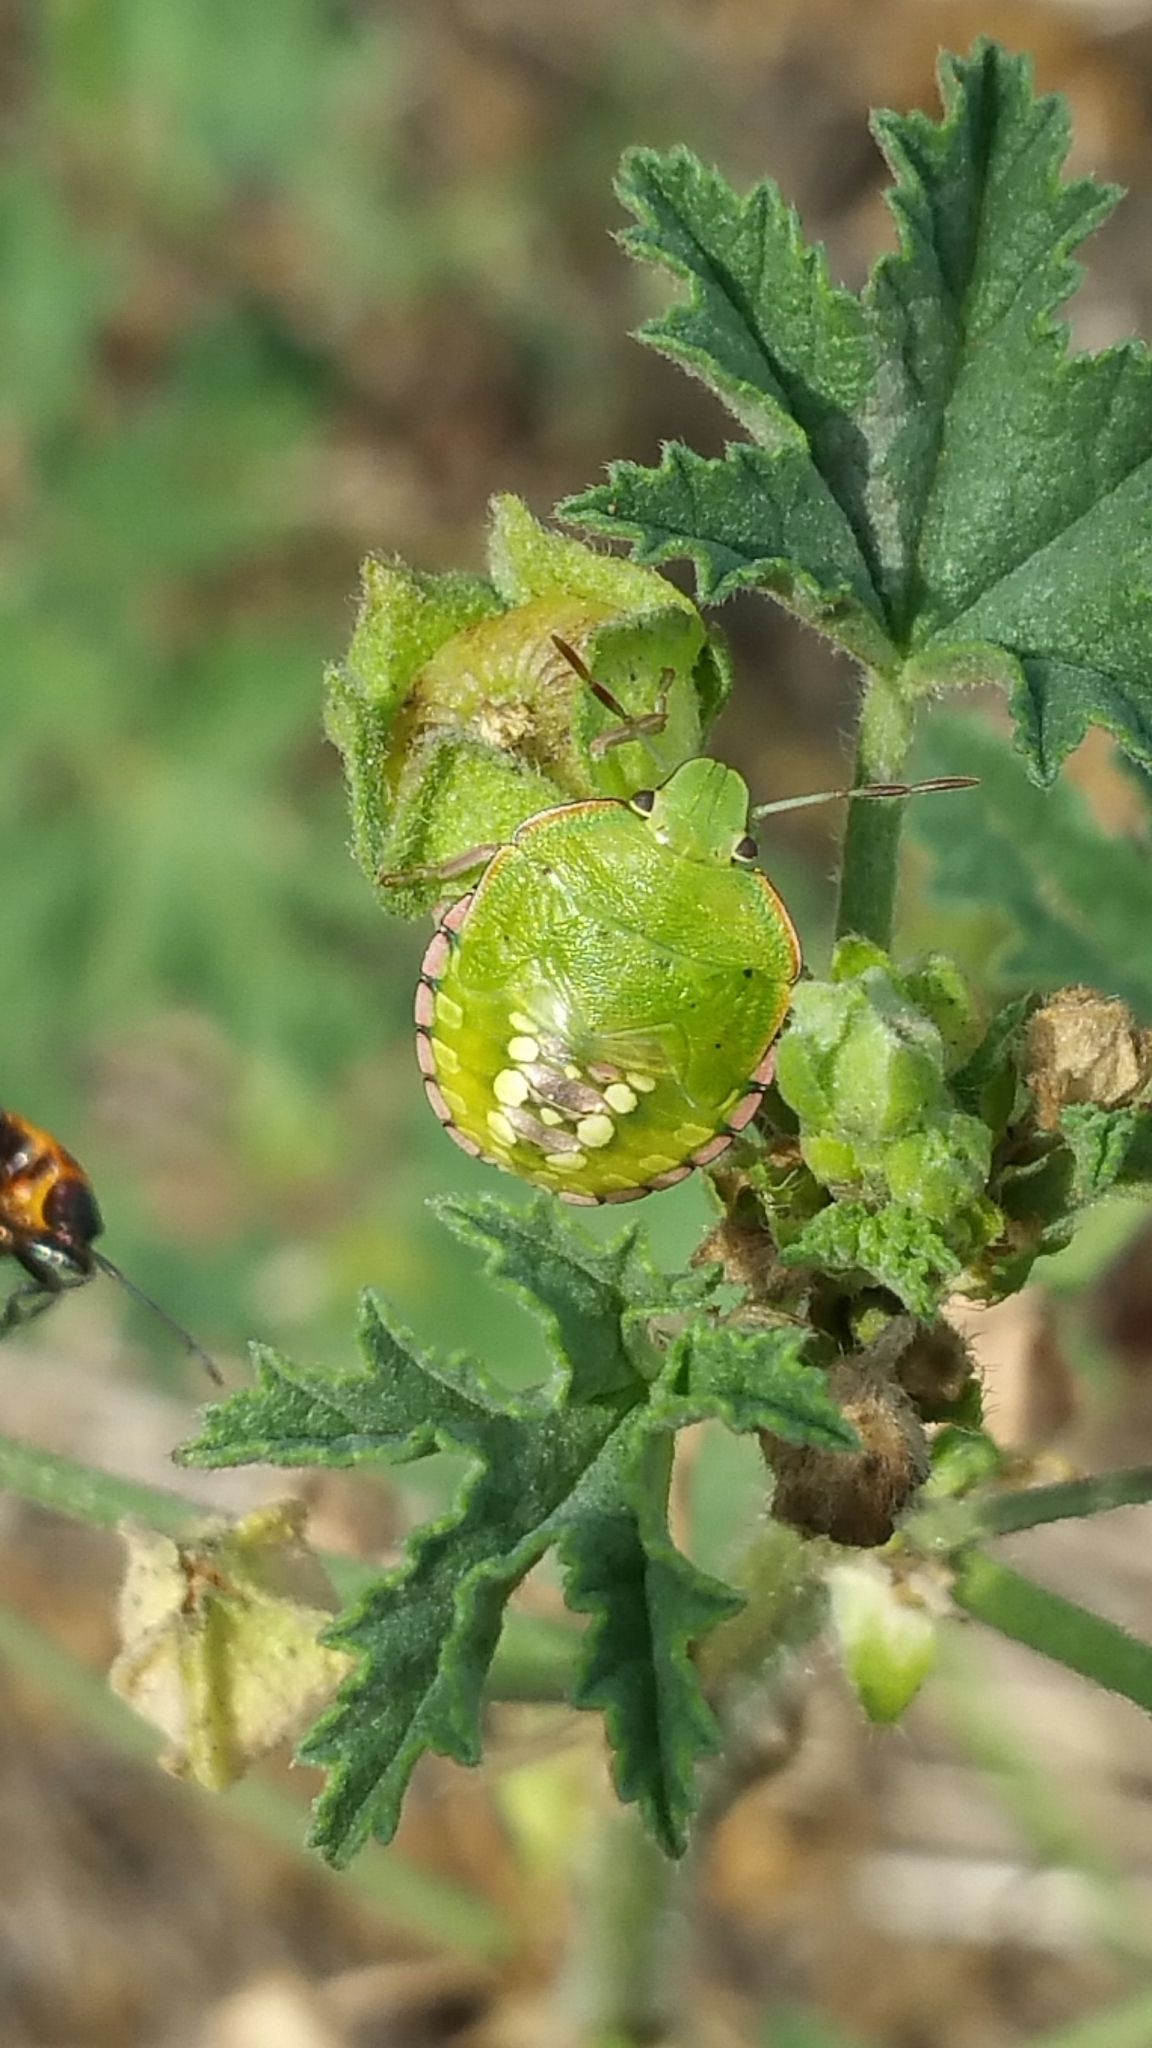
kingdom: Animalia
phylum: Arthropoda
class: Insecta
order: Hemiptera
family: Pentatomidae
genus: Nezara
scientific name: Nezara viridula
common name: Southern green stink bug
